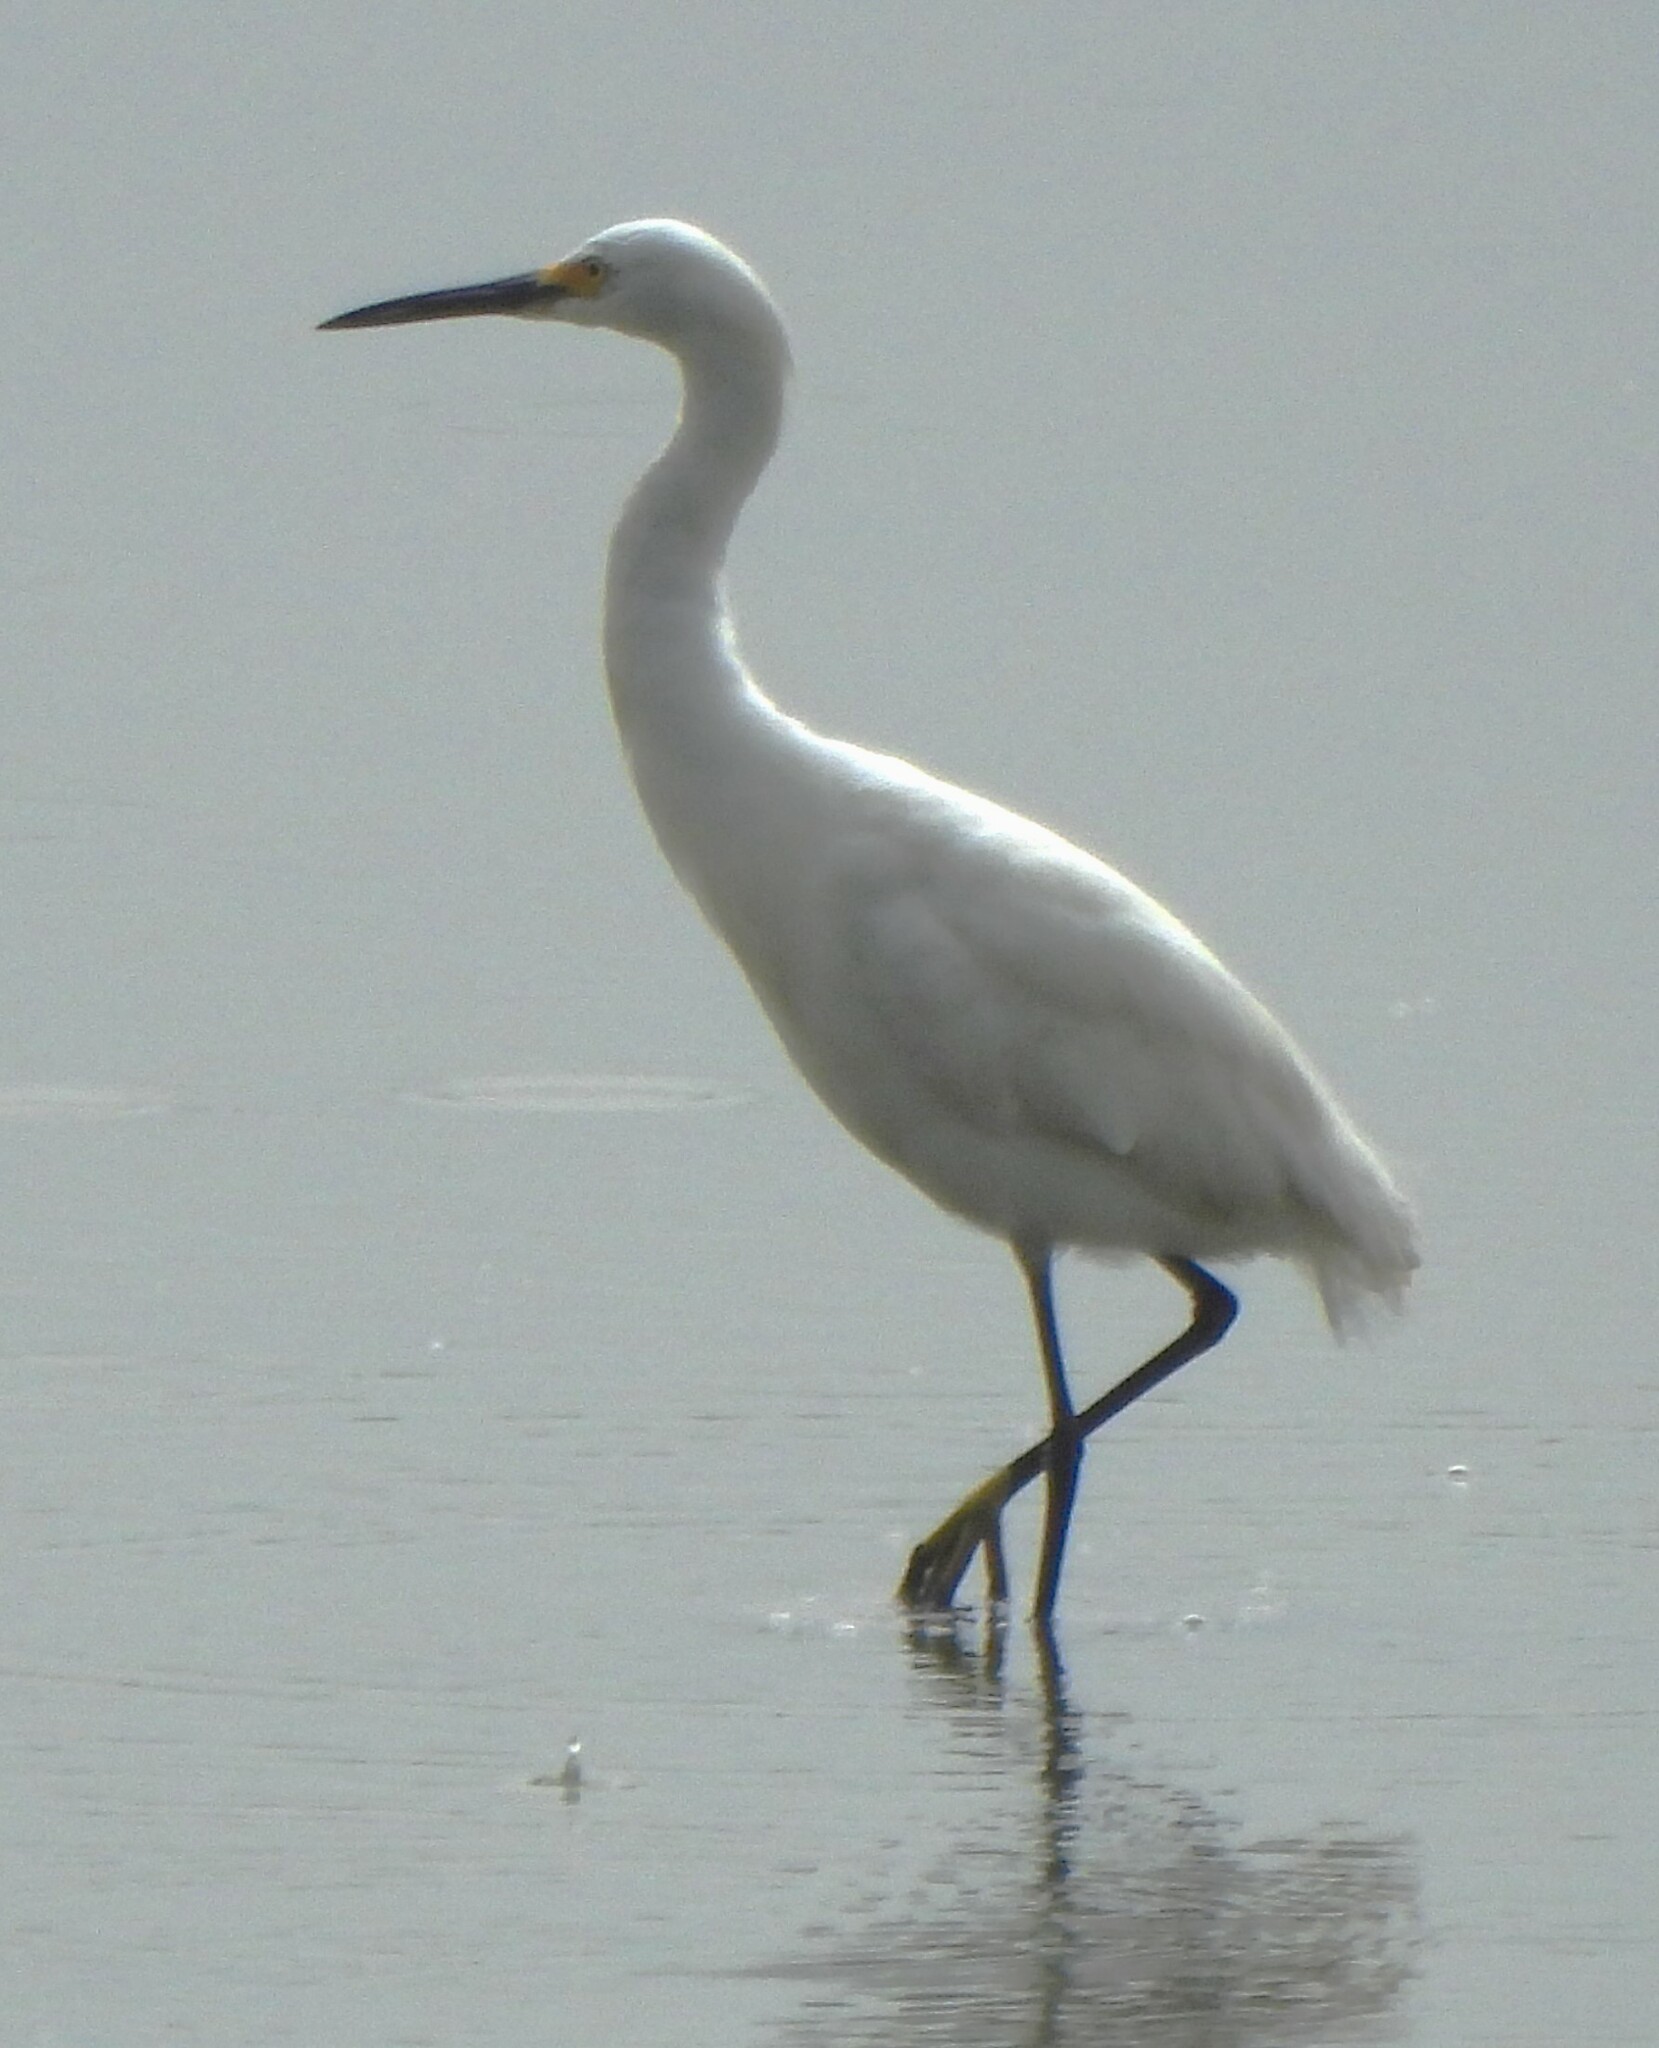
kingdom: Animalia
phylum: Chordata
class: Aves
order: Pelecaniformes
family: Ardeidae
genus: Egretta
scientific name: Egretta thula
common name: Snowy egret
